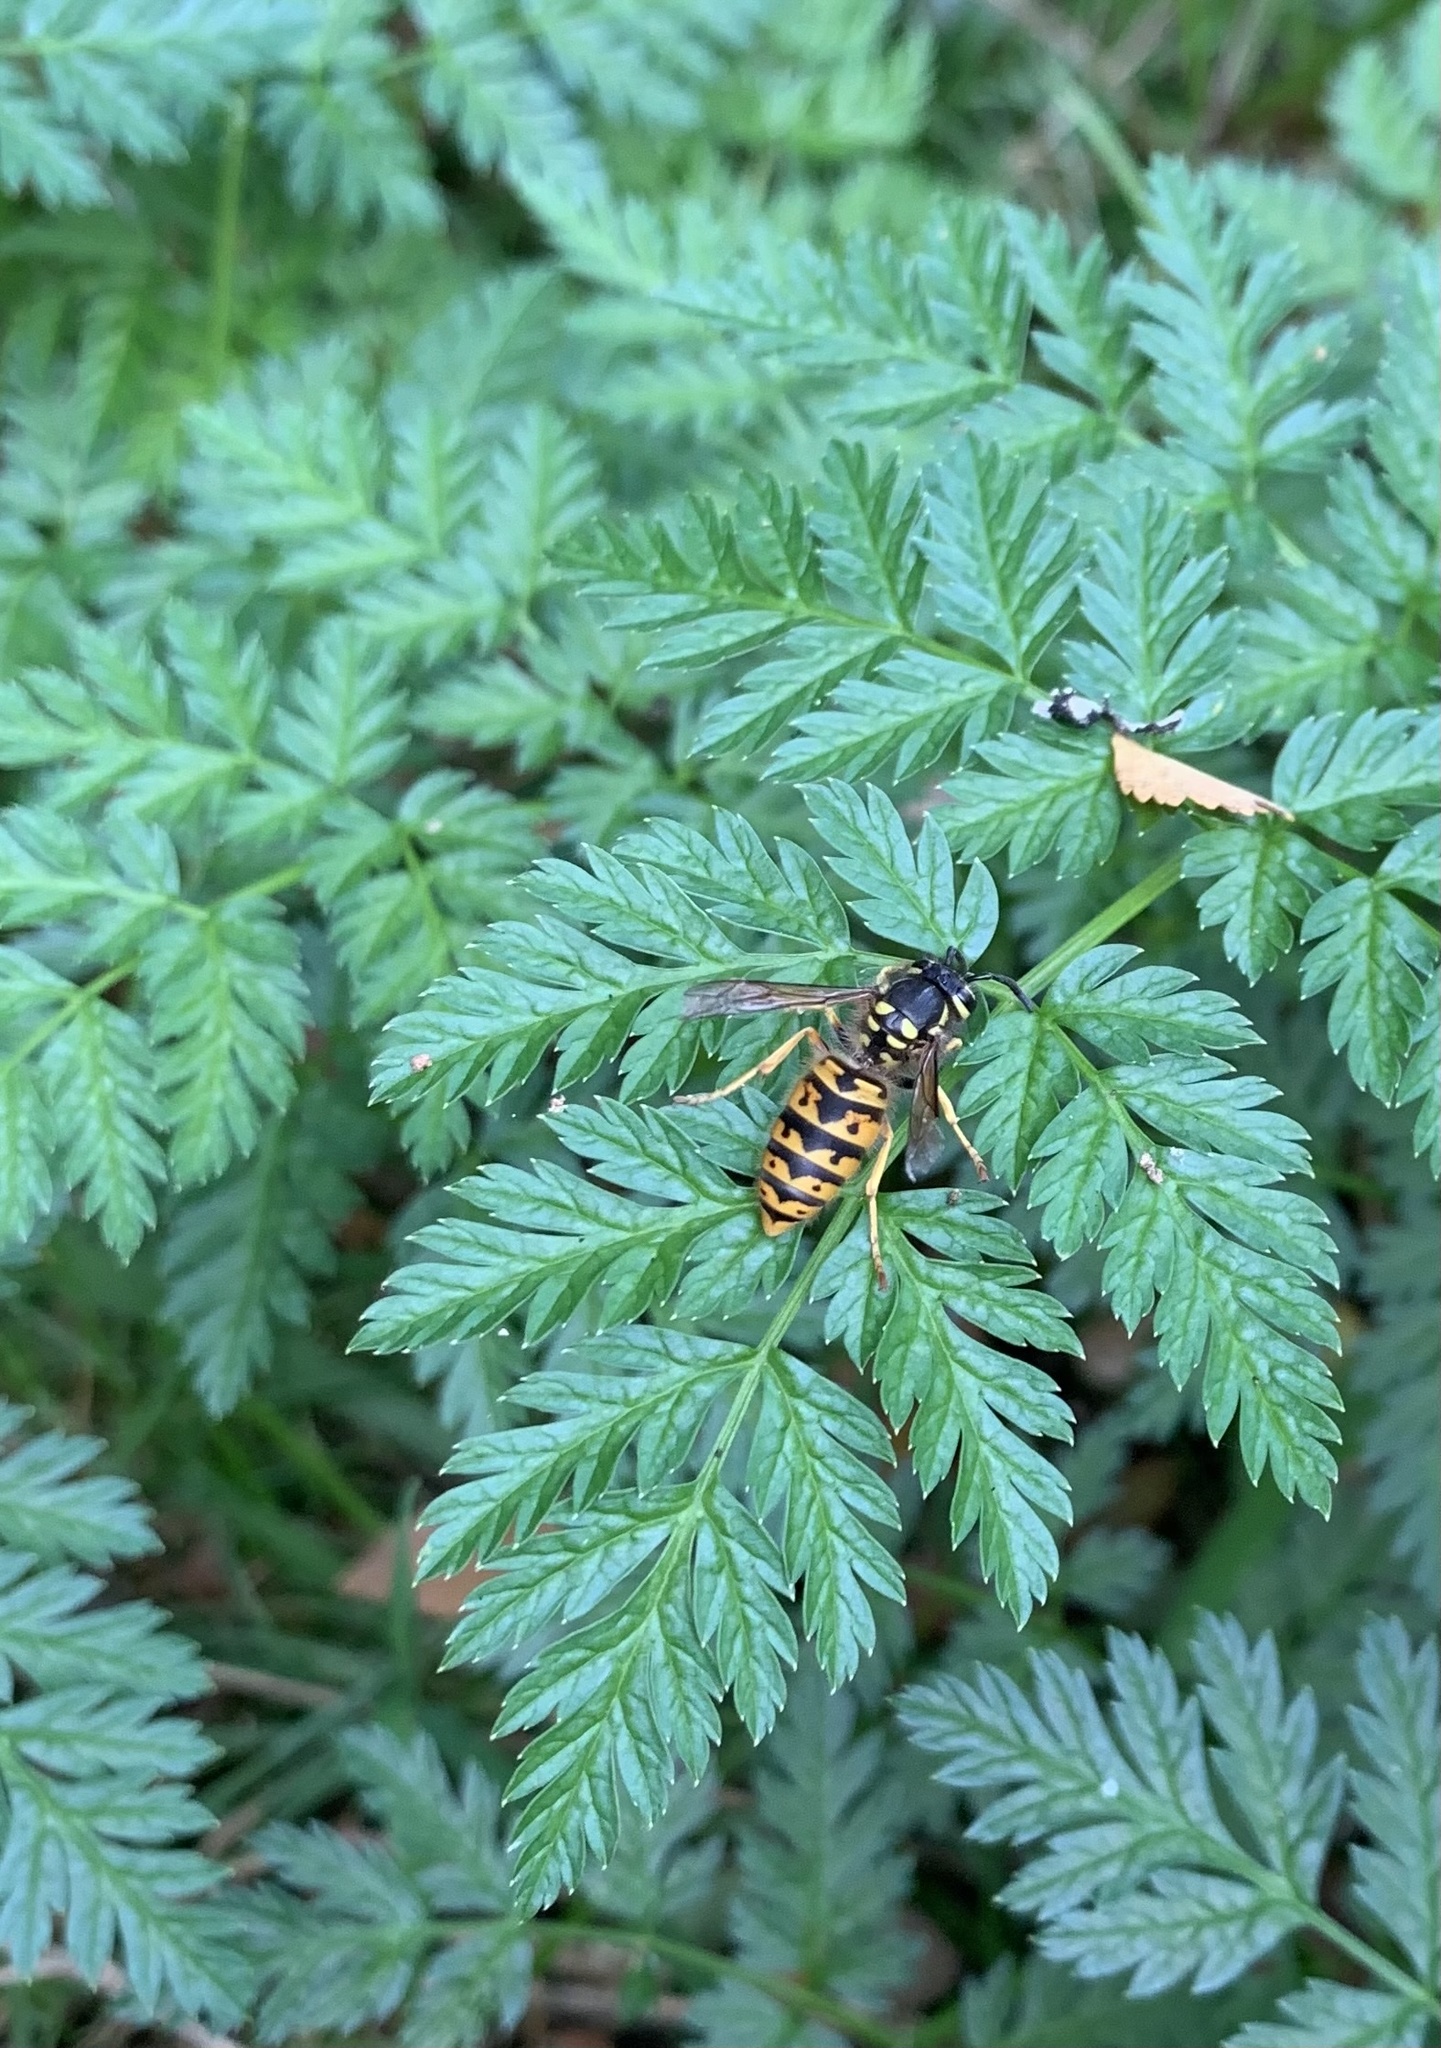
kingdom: Animalia
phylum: Arthropoda
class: Insecta
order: Hymenoptera
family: Vespidae
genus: Vespula
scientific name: Vespula germanica
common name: German wasp
